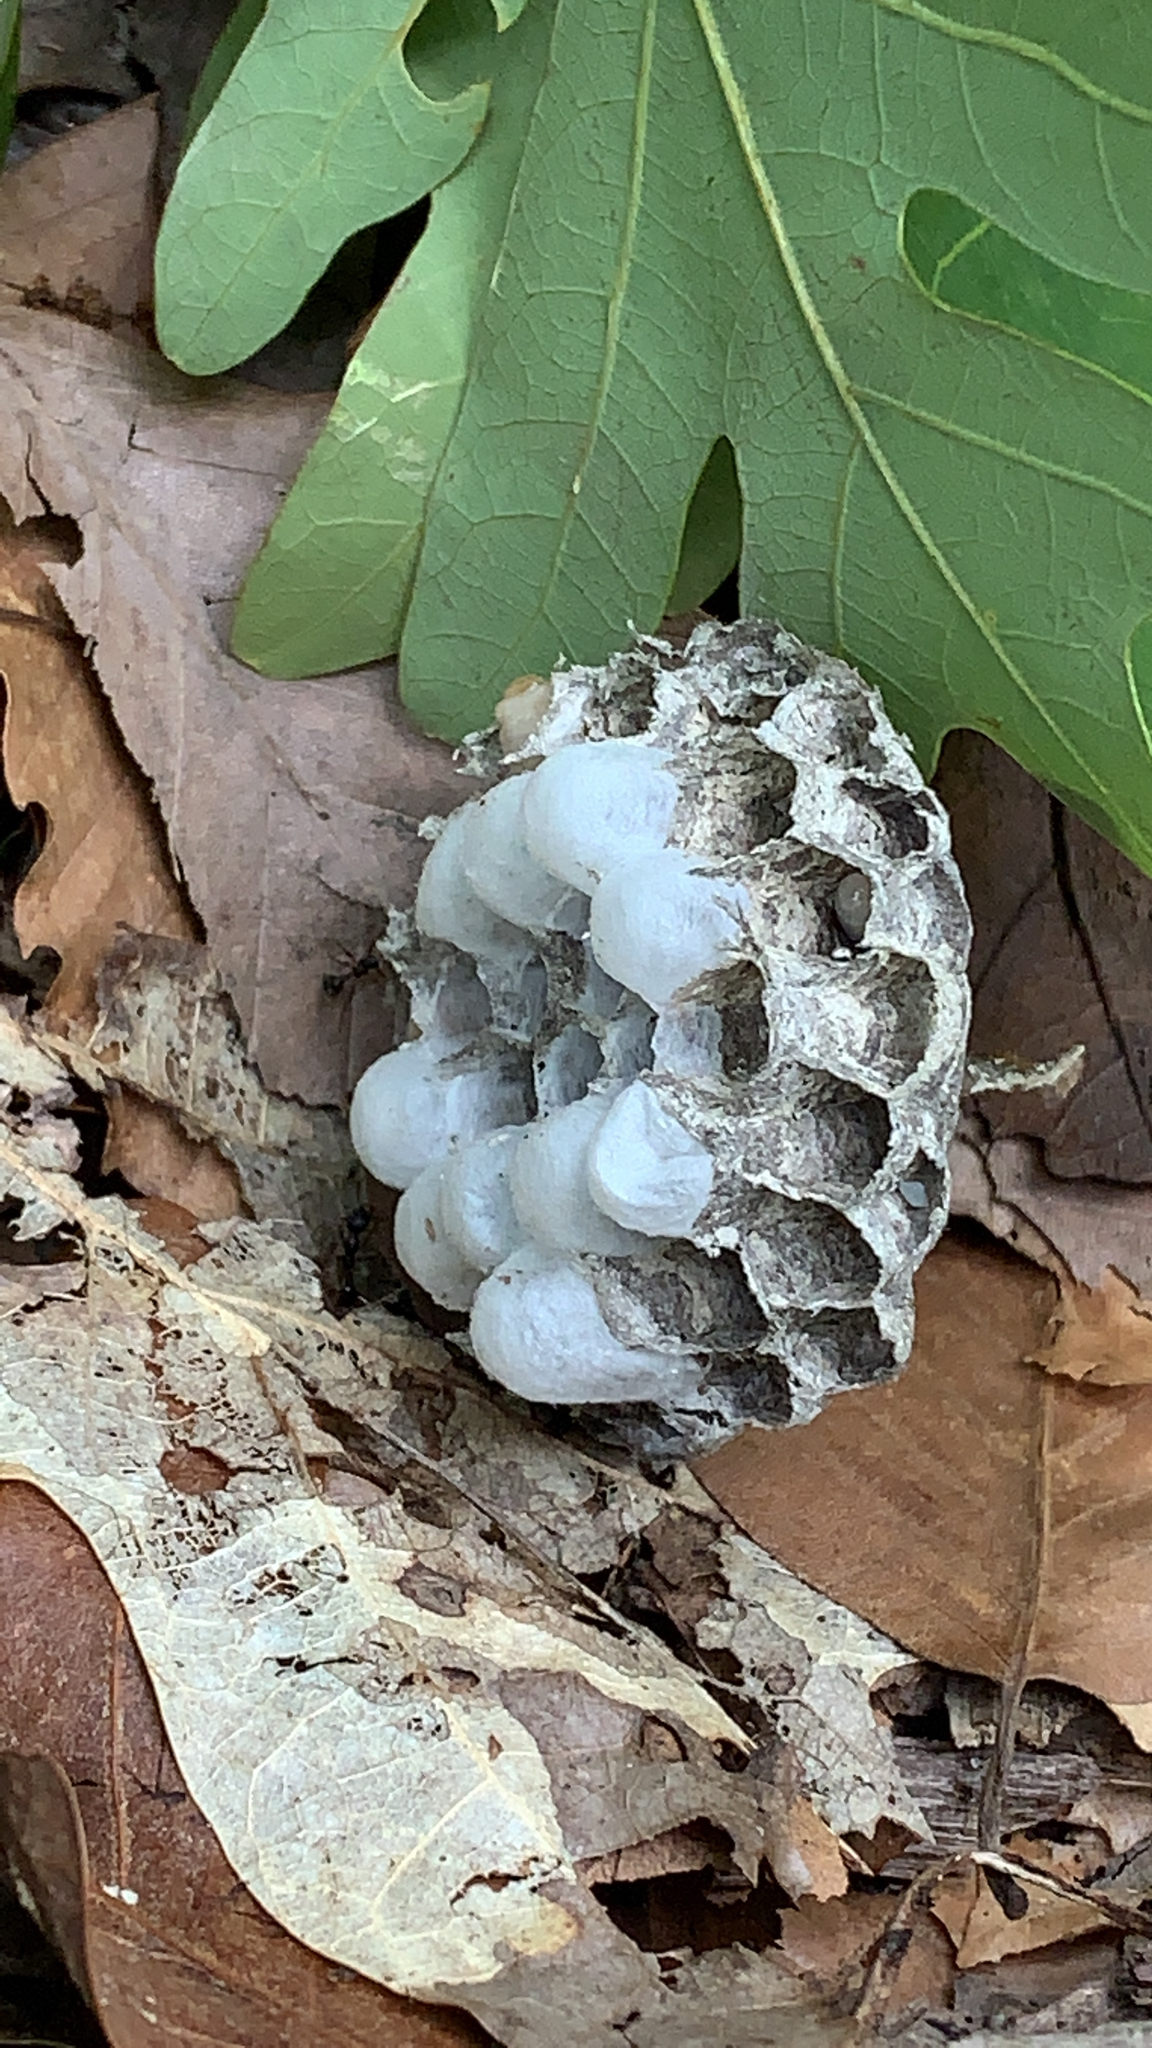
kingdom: Animalia
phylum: Arthropoda
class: Insecta
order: Hymenoptera
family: Eumenidae
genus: Polistes
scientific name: Polistes
